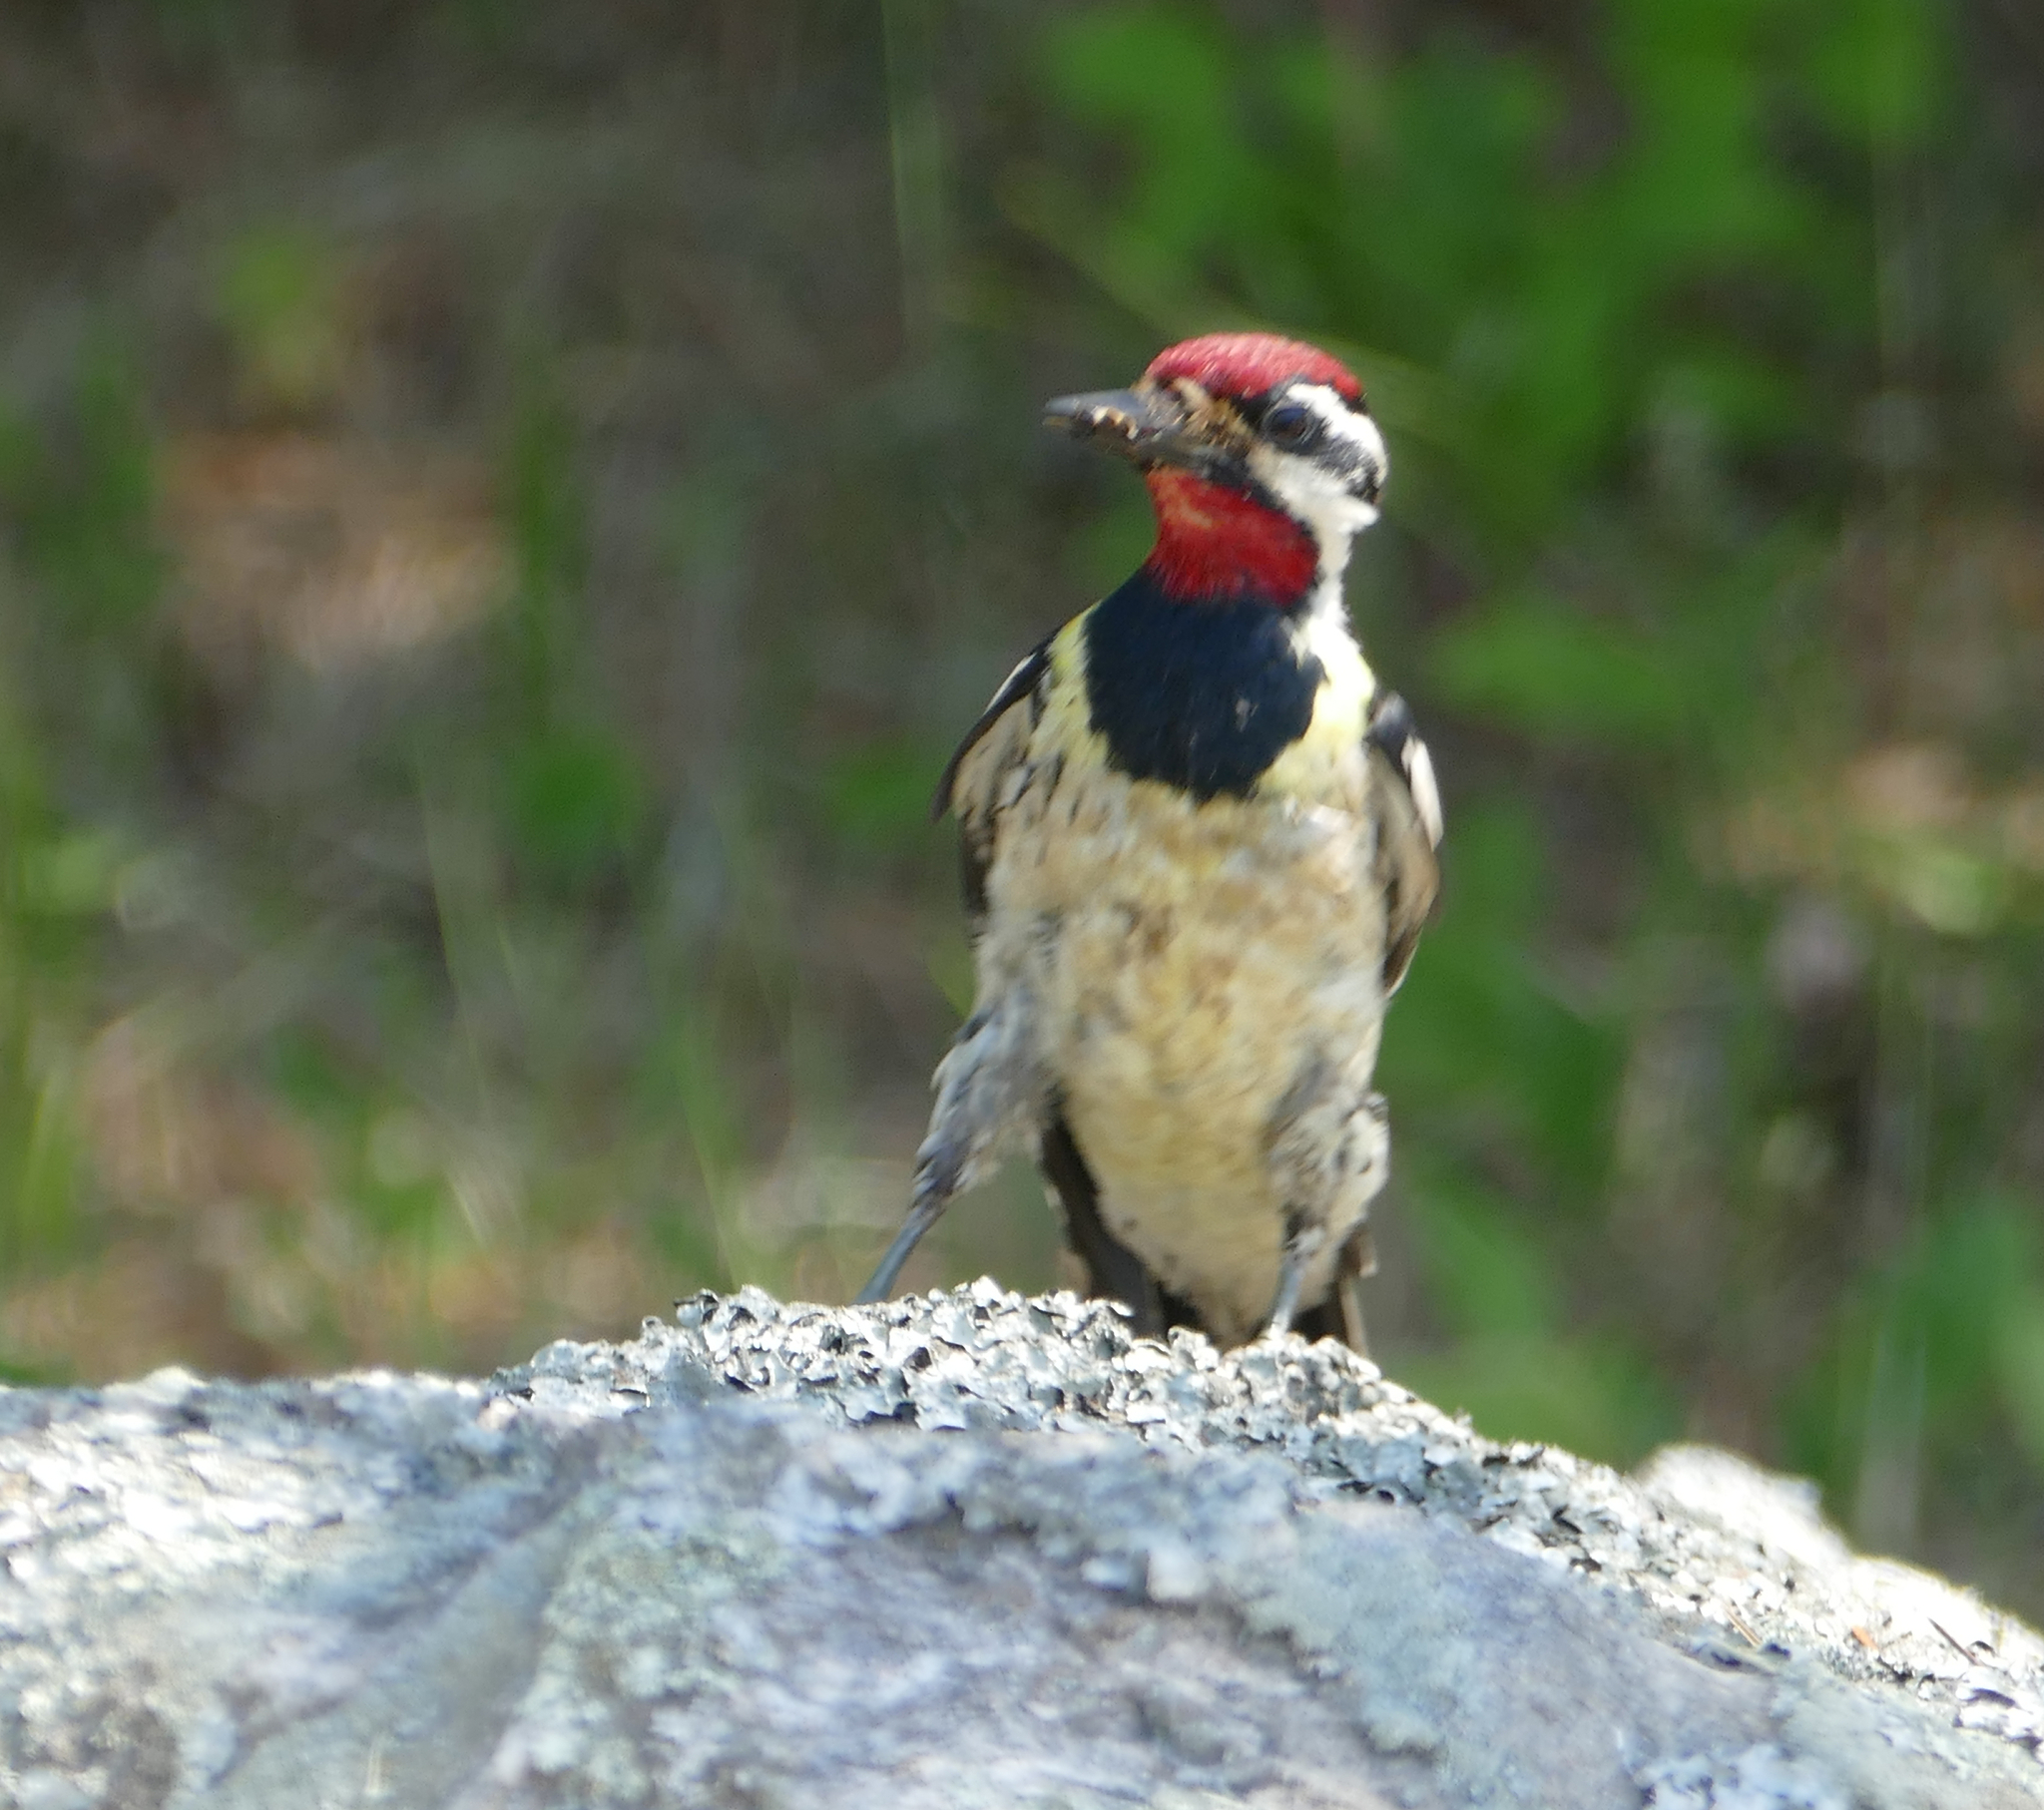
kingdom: Animalia
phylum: Chordata
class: Aves
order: Piciformes
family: Picidae
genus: Sphyrapicus
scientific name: Sphyrapicus varius
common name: Yellow-bellied sapsucker
